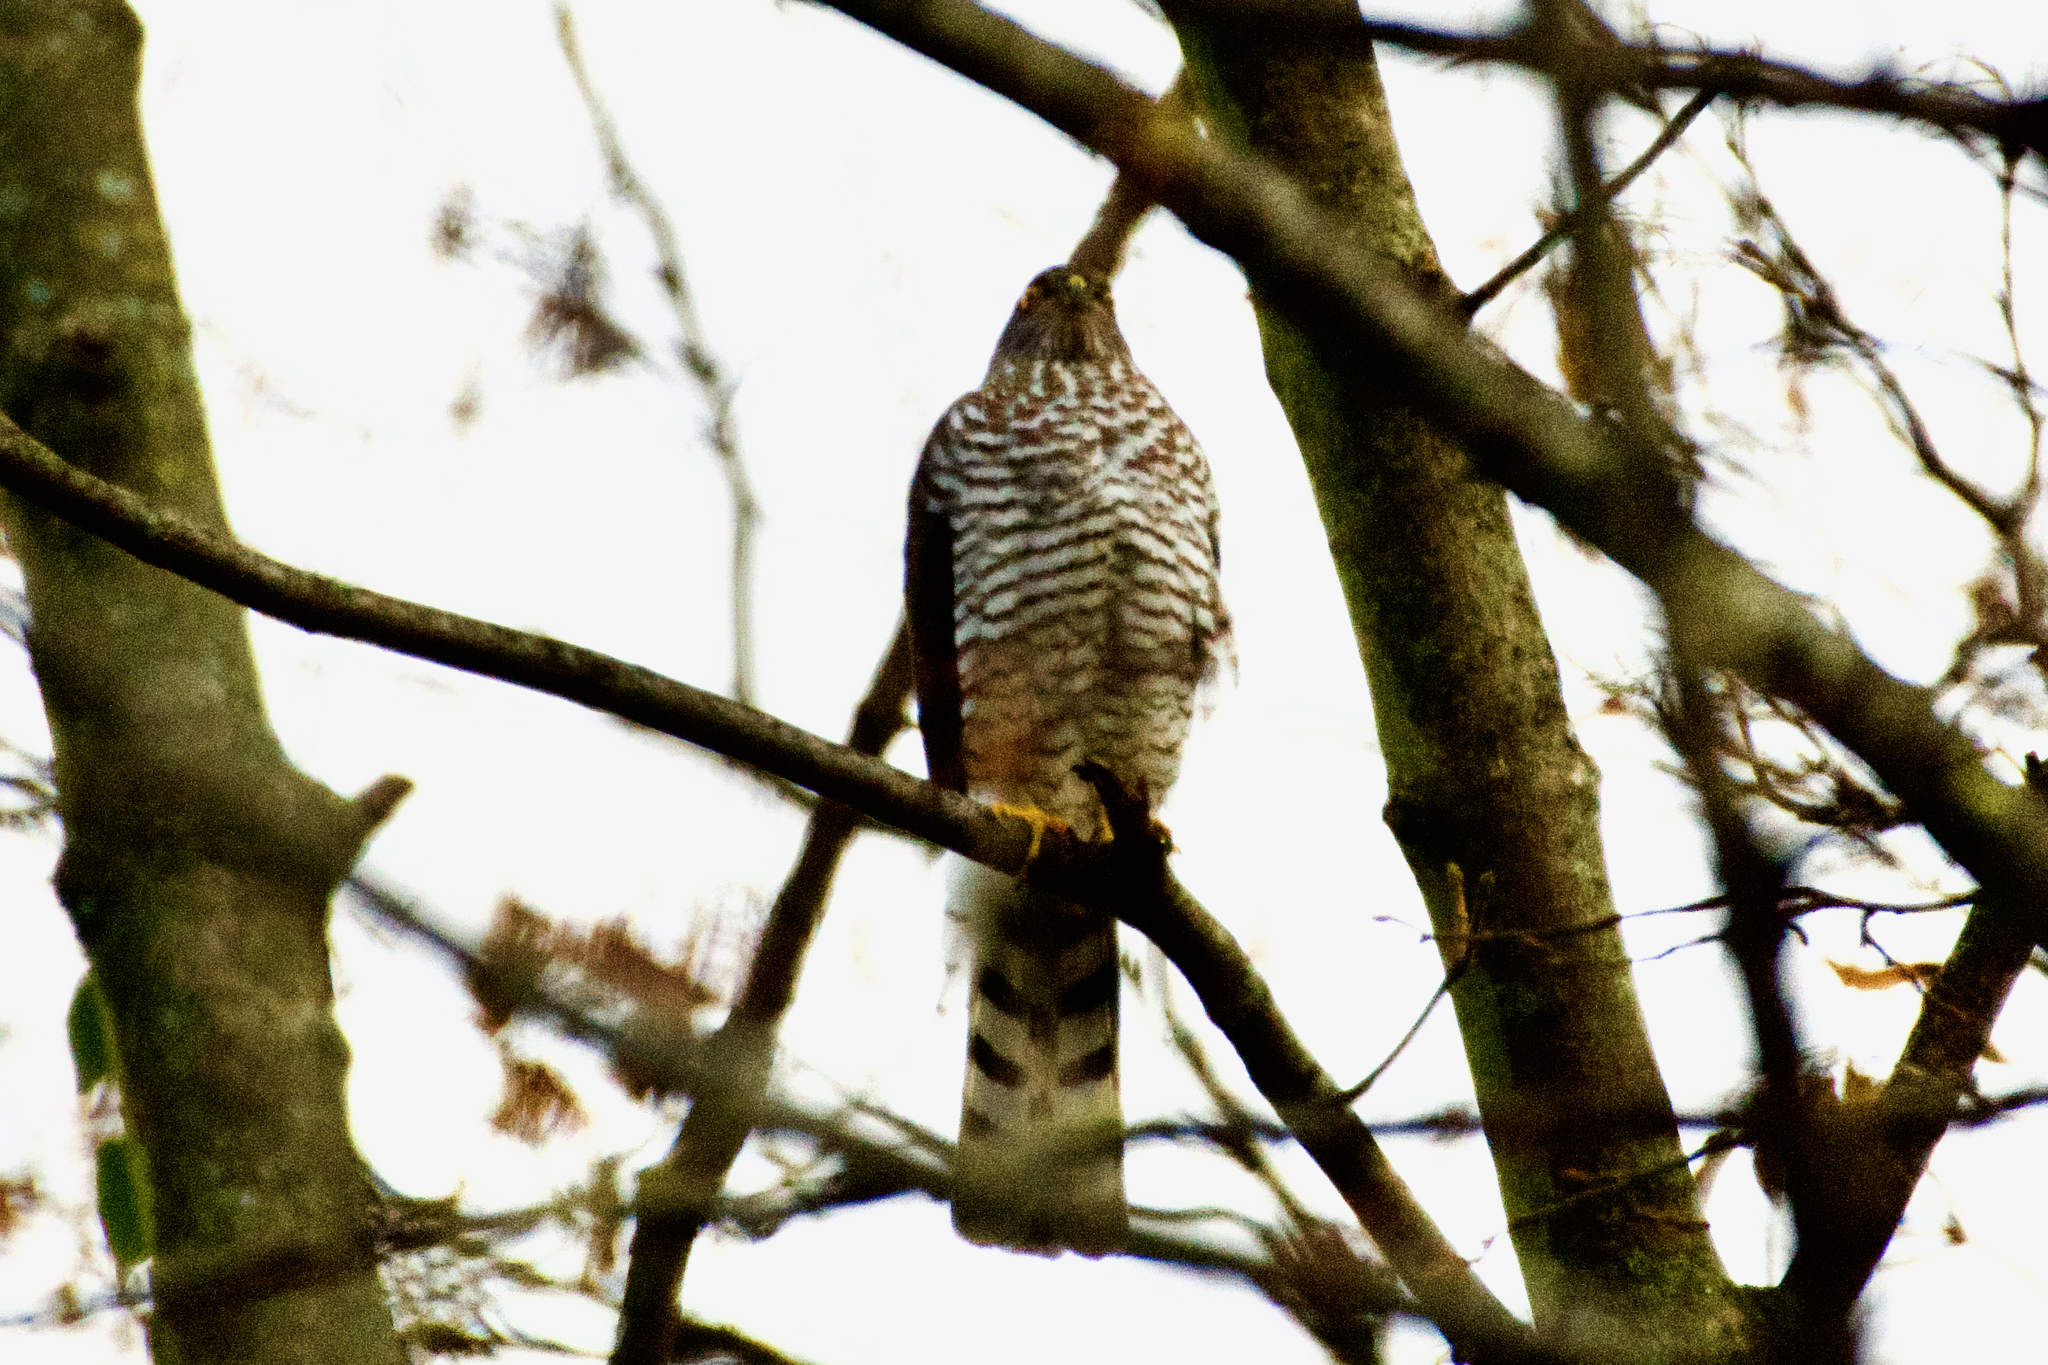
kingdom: Animalia
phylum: Chordata
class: Aves
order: Accipitriformes
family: Accipitridae
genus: Accipiter
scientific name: Accipiter nisus
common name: Eurasian sparrowhawk
